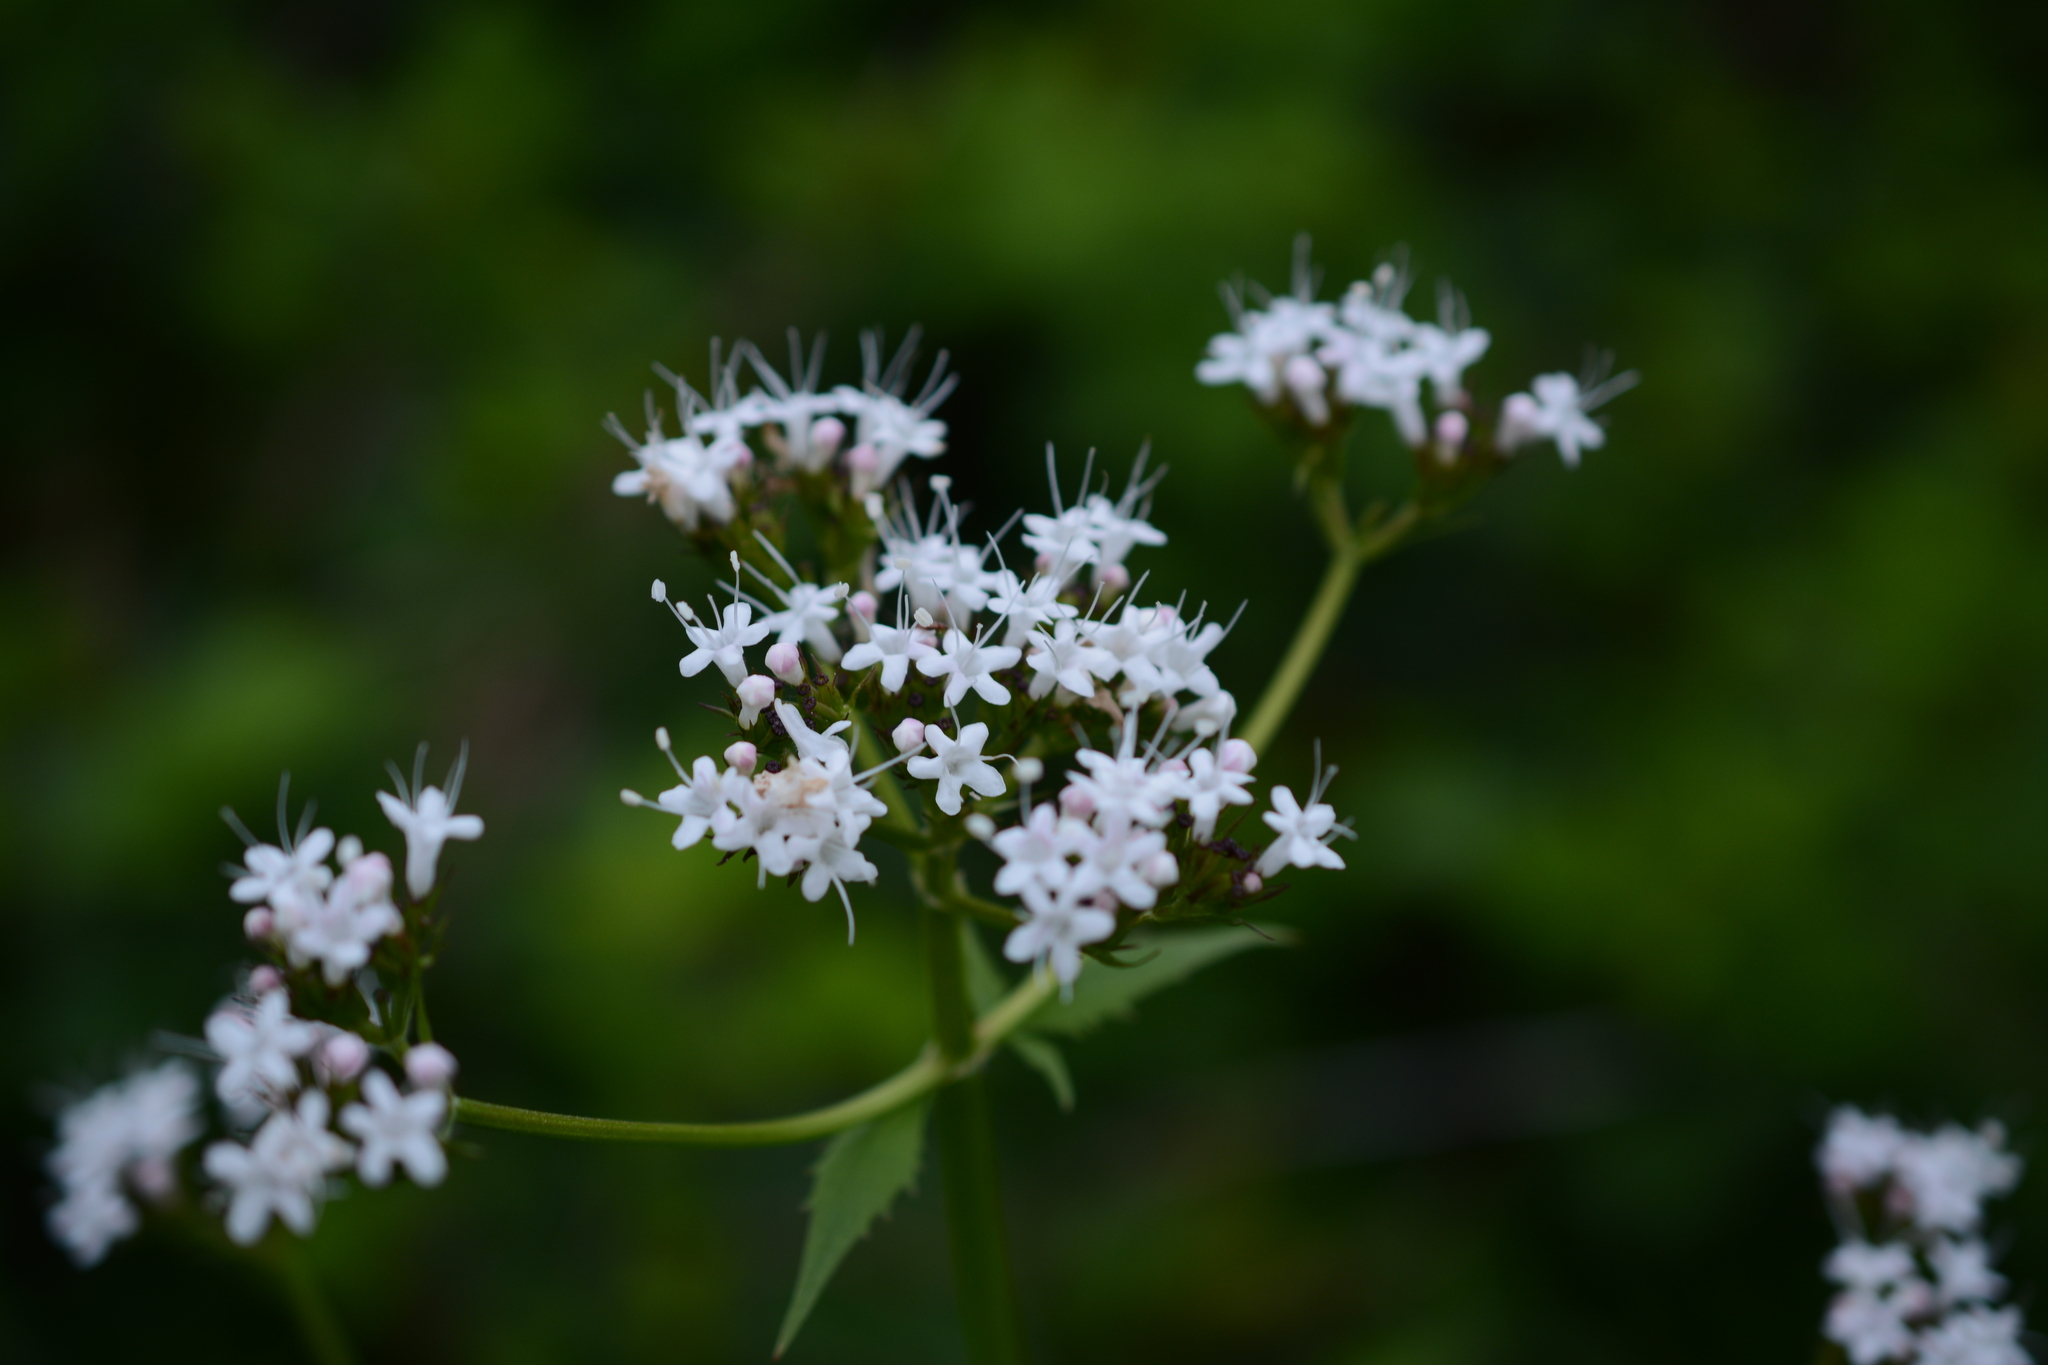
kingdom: Plantae
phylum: Tracheophyta
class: Magnoliopsida
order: Dipsacales
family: Caprifoliaceae
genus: Valeriana
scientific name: Valeriana sitchensis
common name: Pacific valerian
